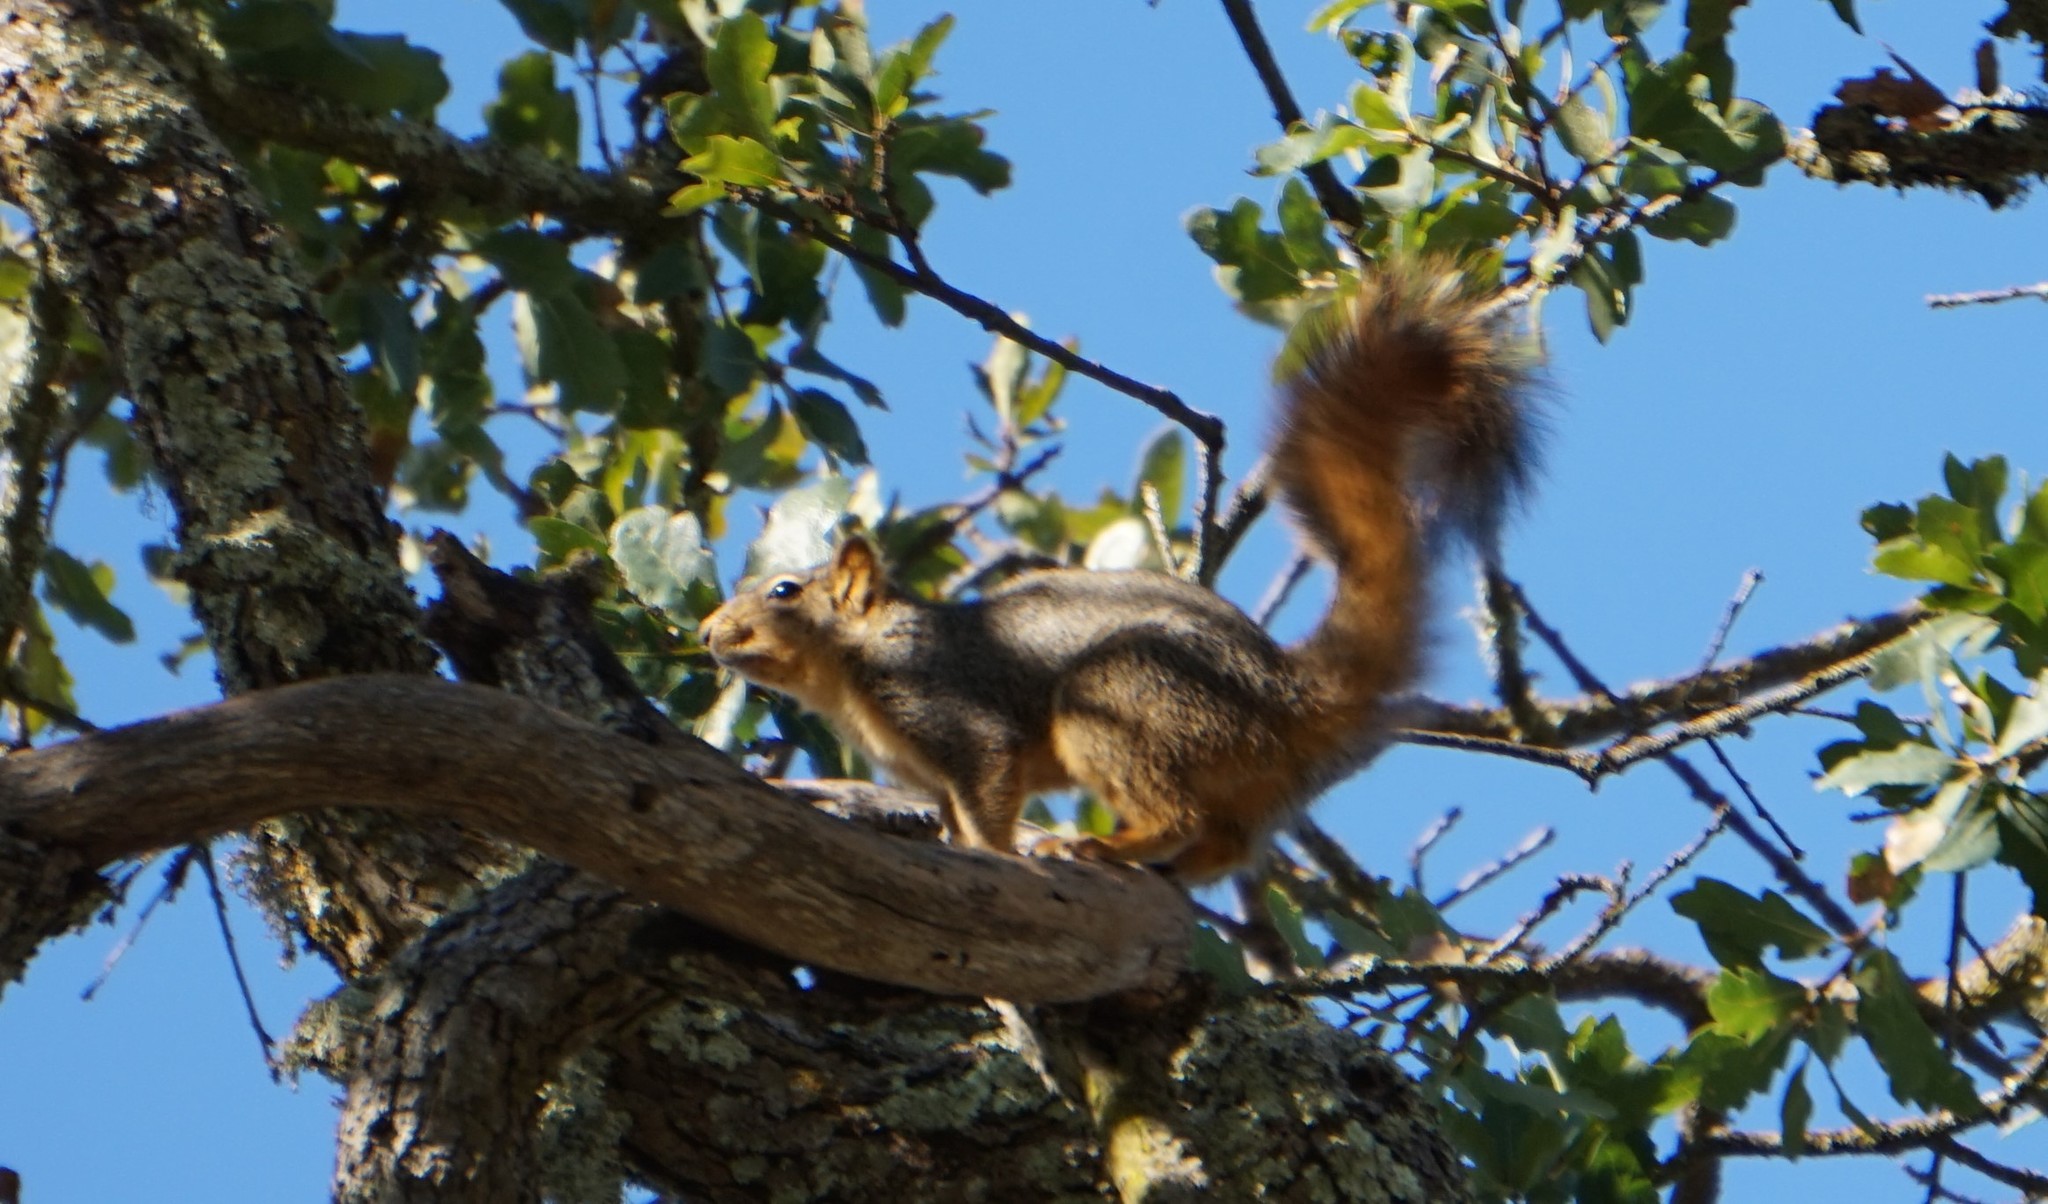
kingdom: Animalia
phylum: Chordata
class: Mammalia
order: Rodentia
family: Sciuridae
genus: Sciurus
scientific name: Sciurus niger
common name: Fox squirrel
